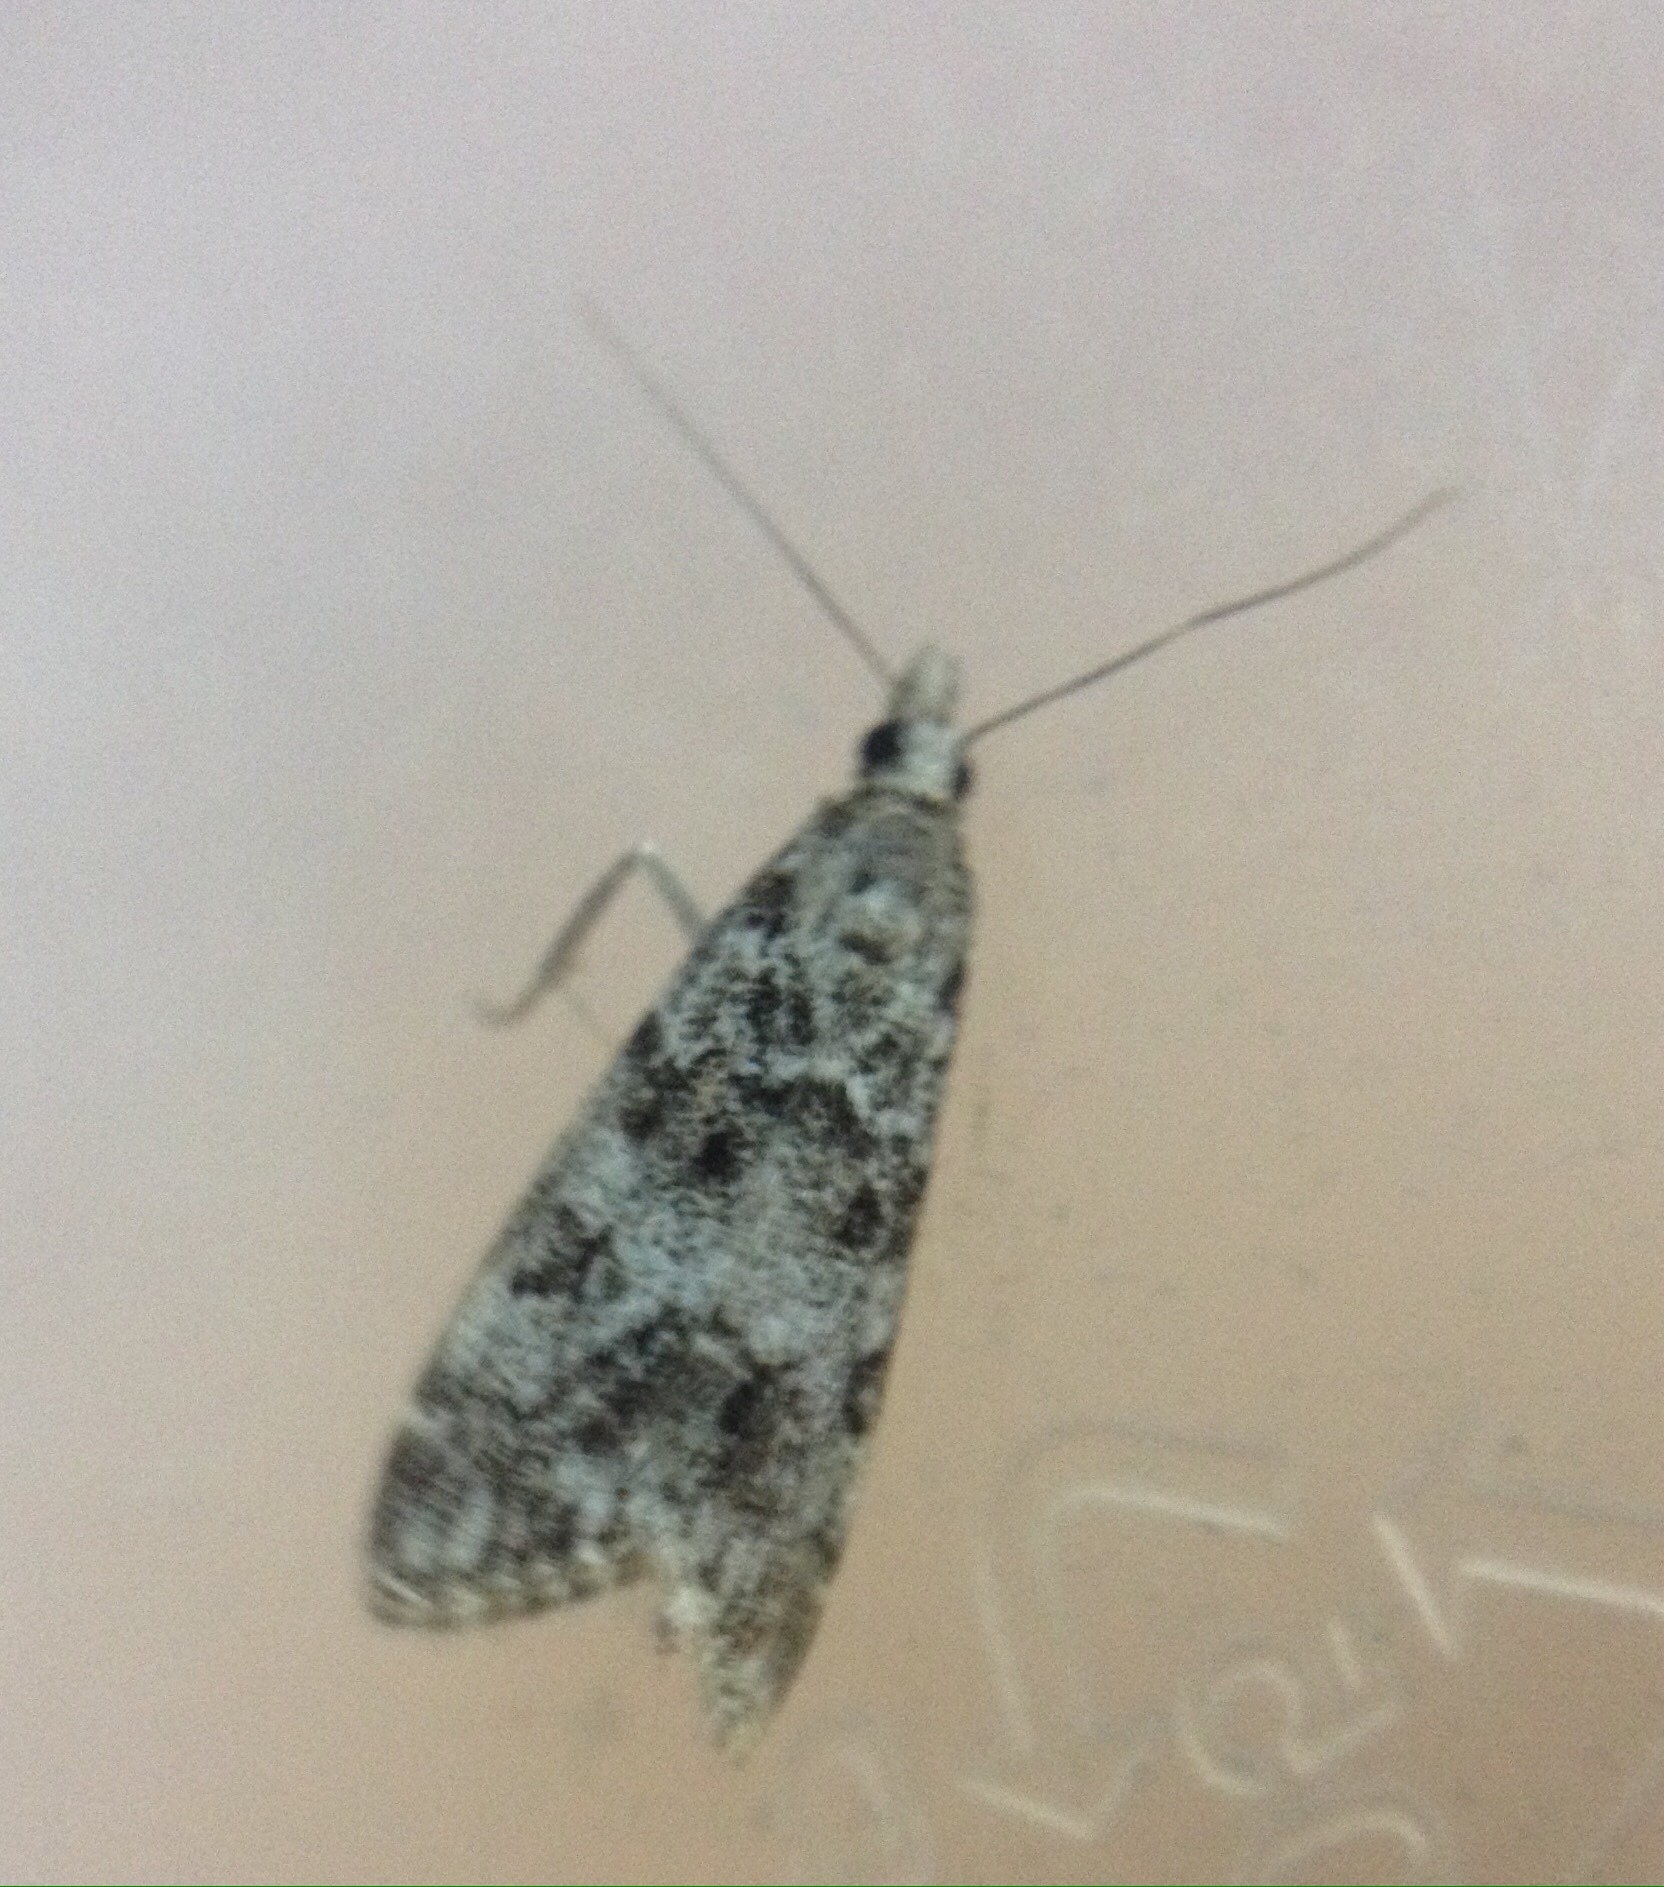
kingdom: Animalia
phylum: Arthropoda
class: Insecta
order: Lepidoptera
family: Crambidae
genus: Eudonia
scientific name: Eudonia mercurella
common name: Small grey
